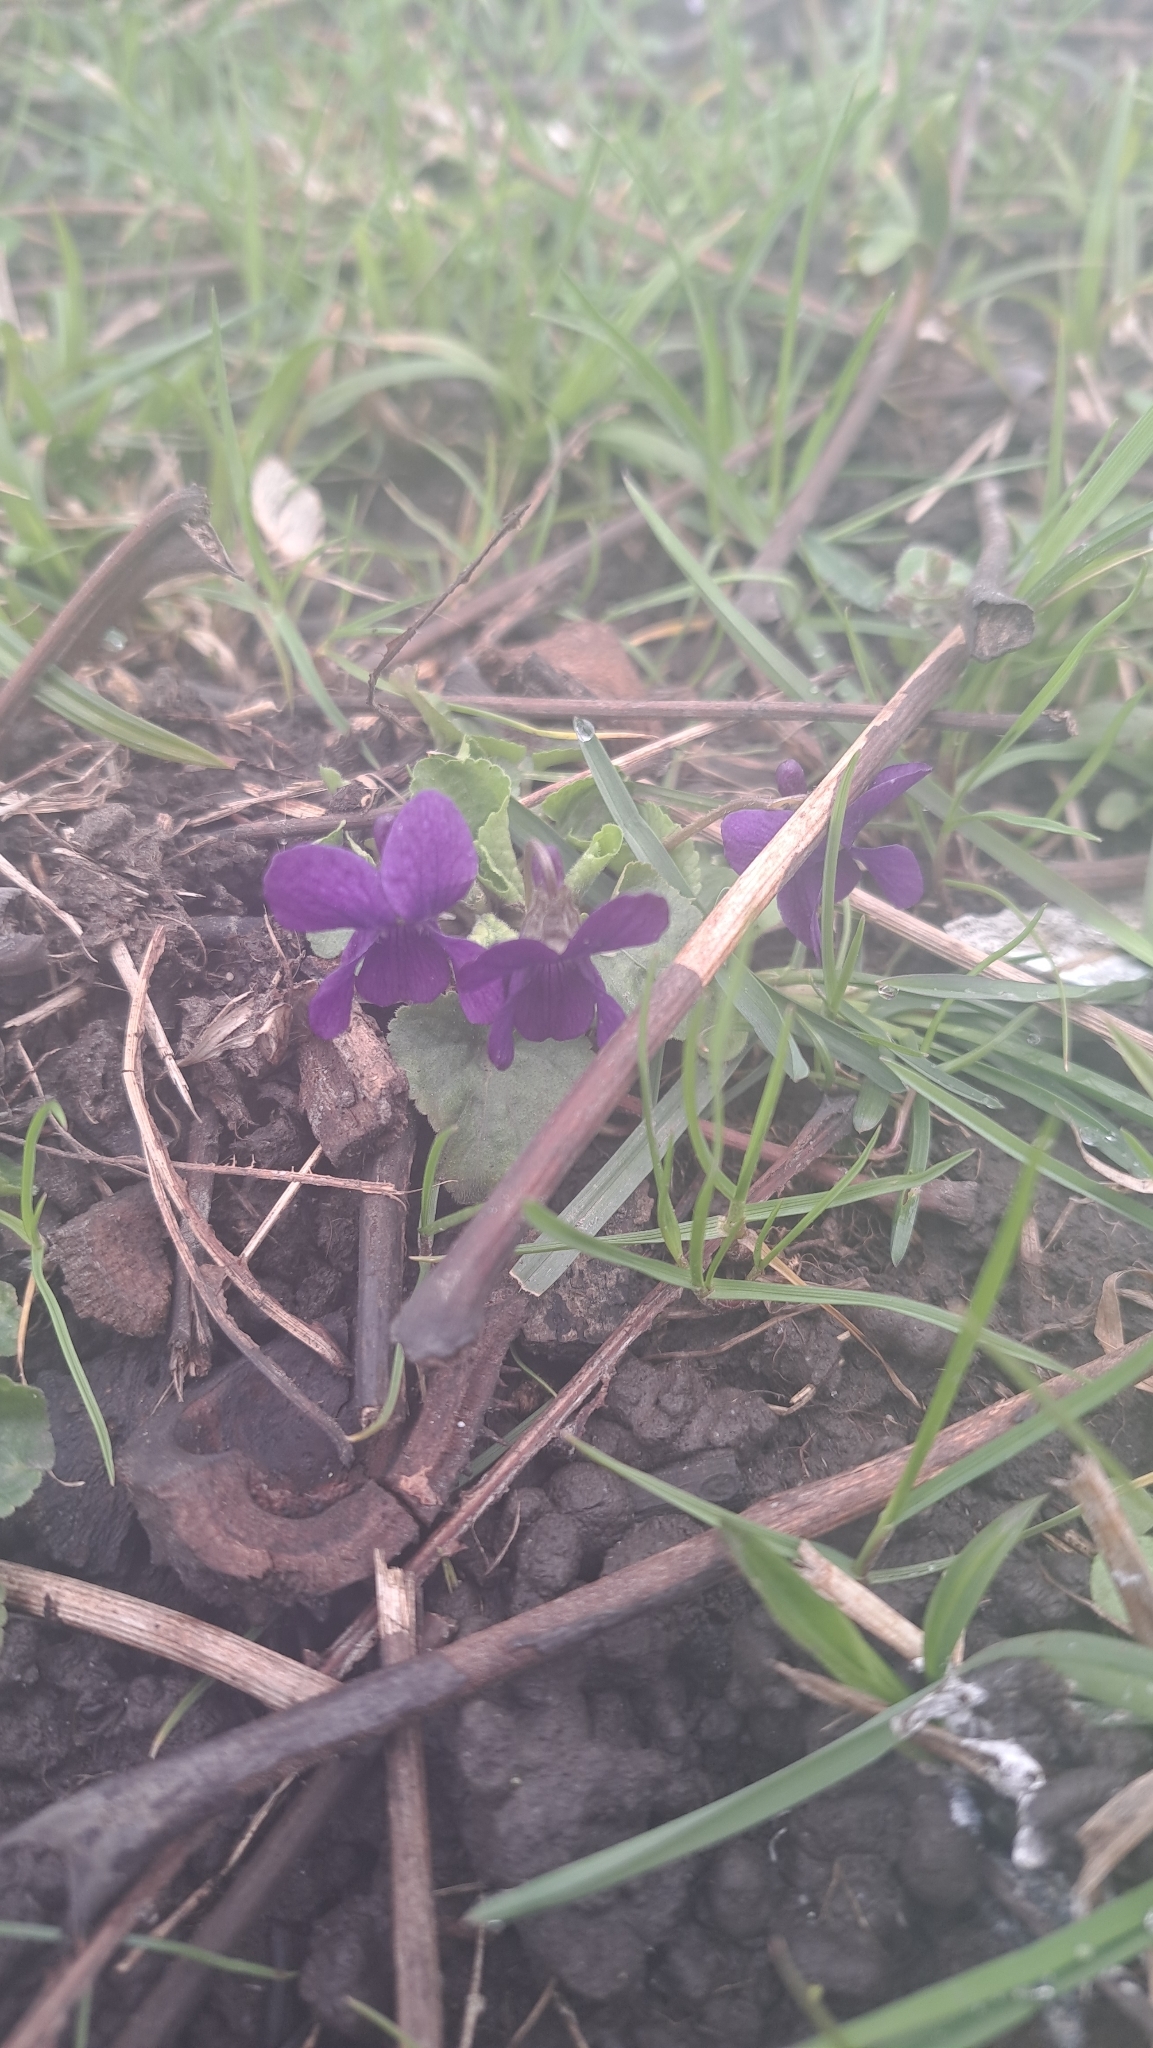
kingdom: Plantae
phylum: Tracheophyta
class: Magnoliopsida
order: Malpighiales
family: Violaceae
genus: Viola
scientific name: Viola odorata
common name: Sweet violet
